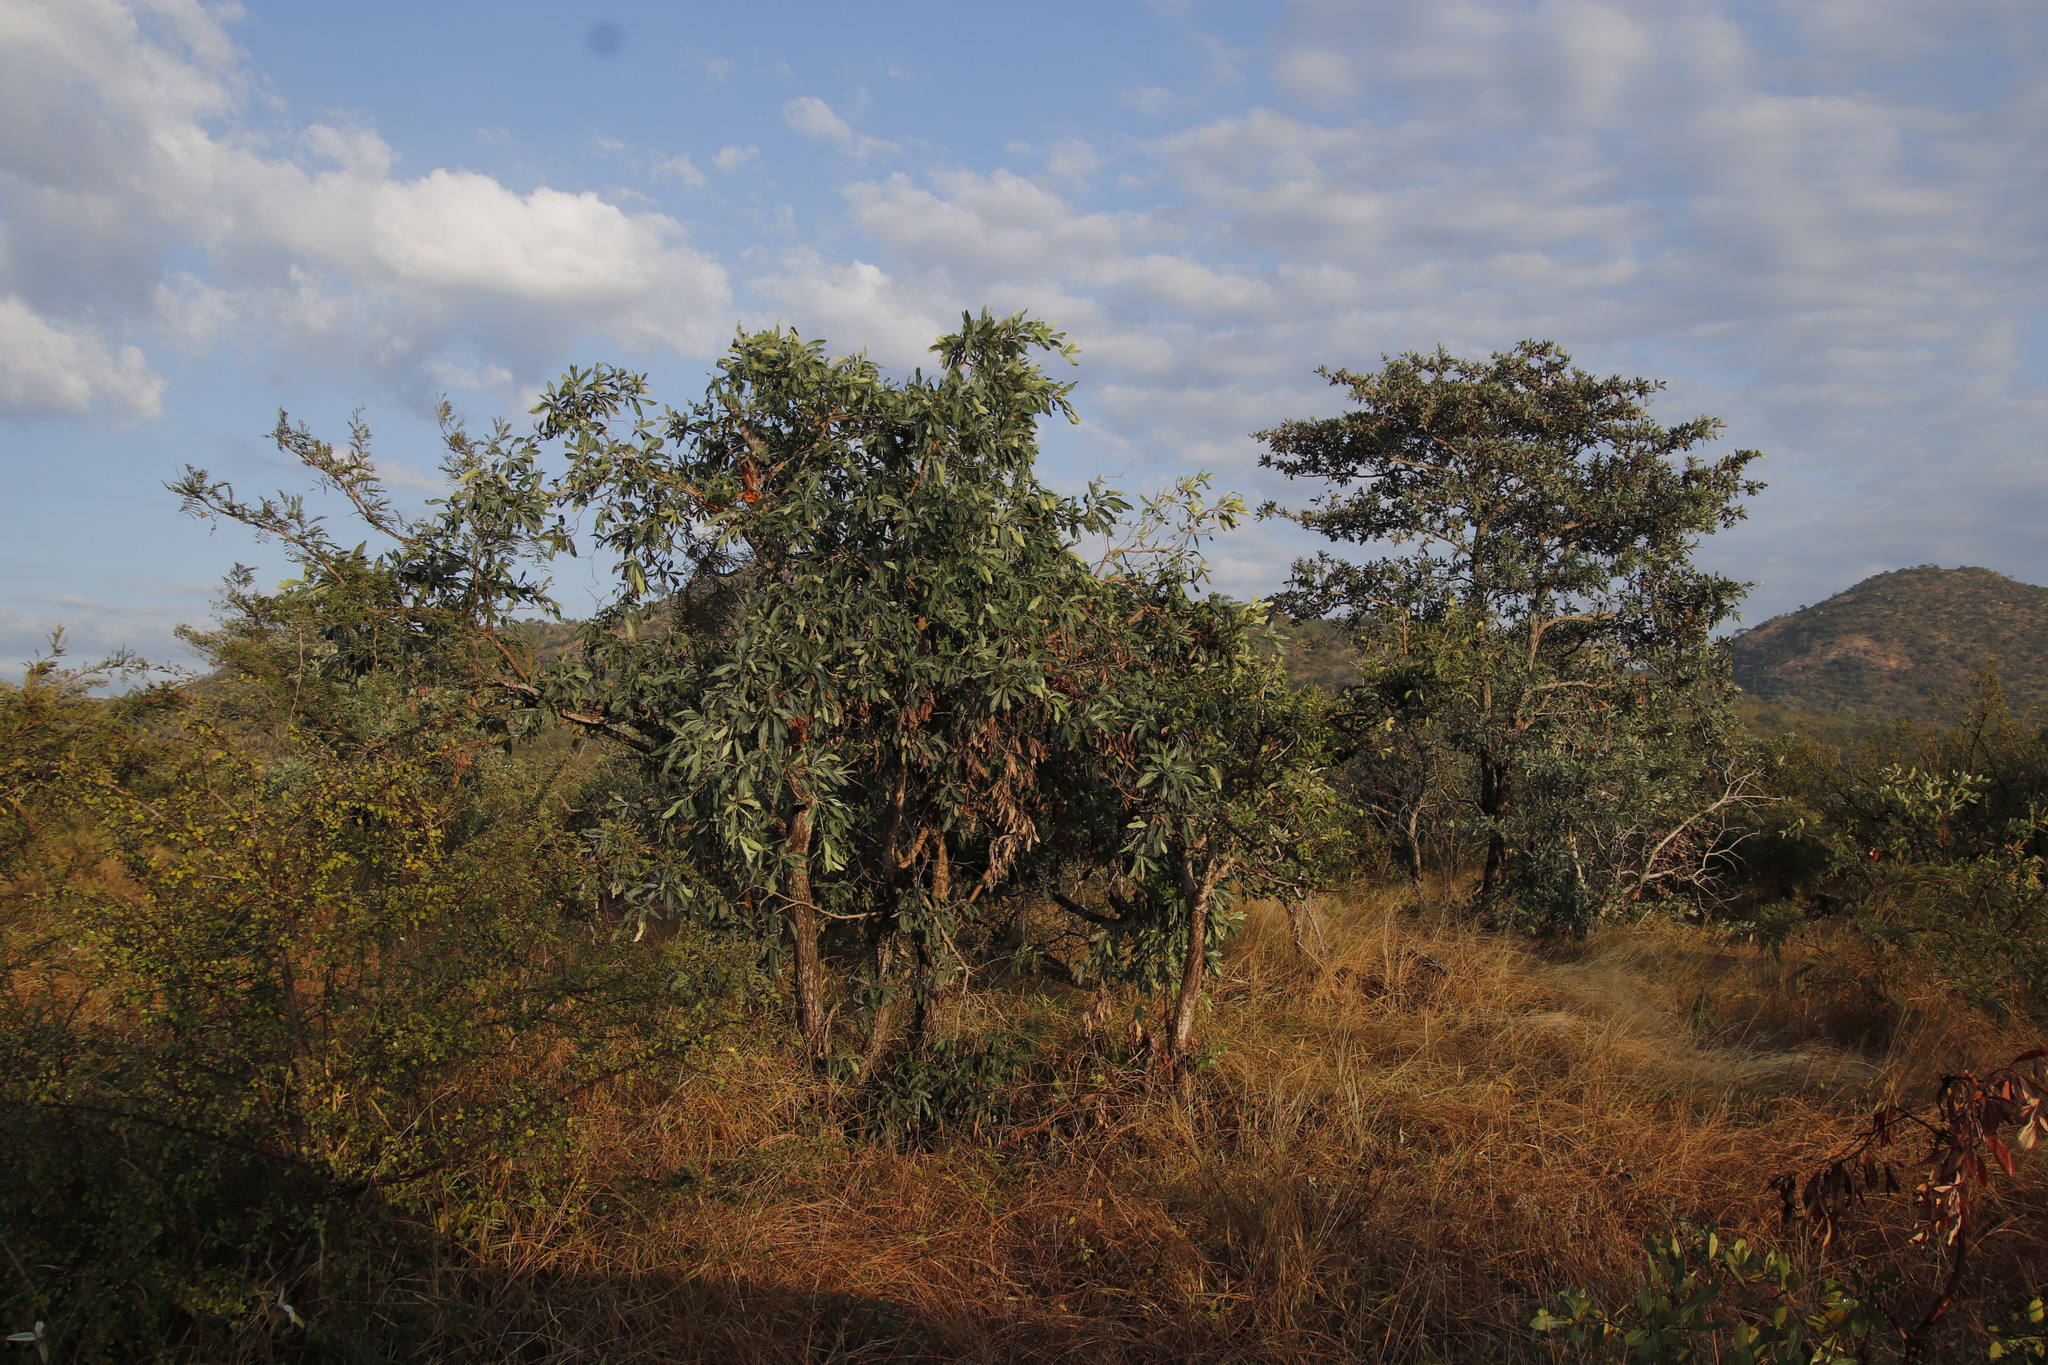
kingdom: Plantae
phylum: Tracheophyta
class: Magnoliopsida
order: Myrtales
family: Combretaceae
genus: Terminalia
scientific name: Terminalia sericea
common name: Clusterleaf
